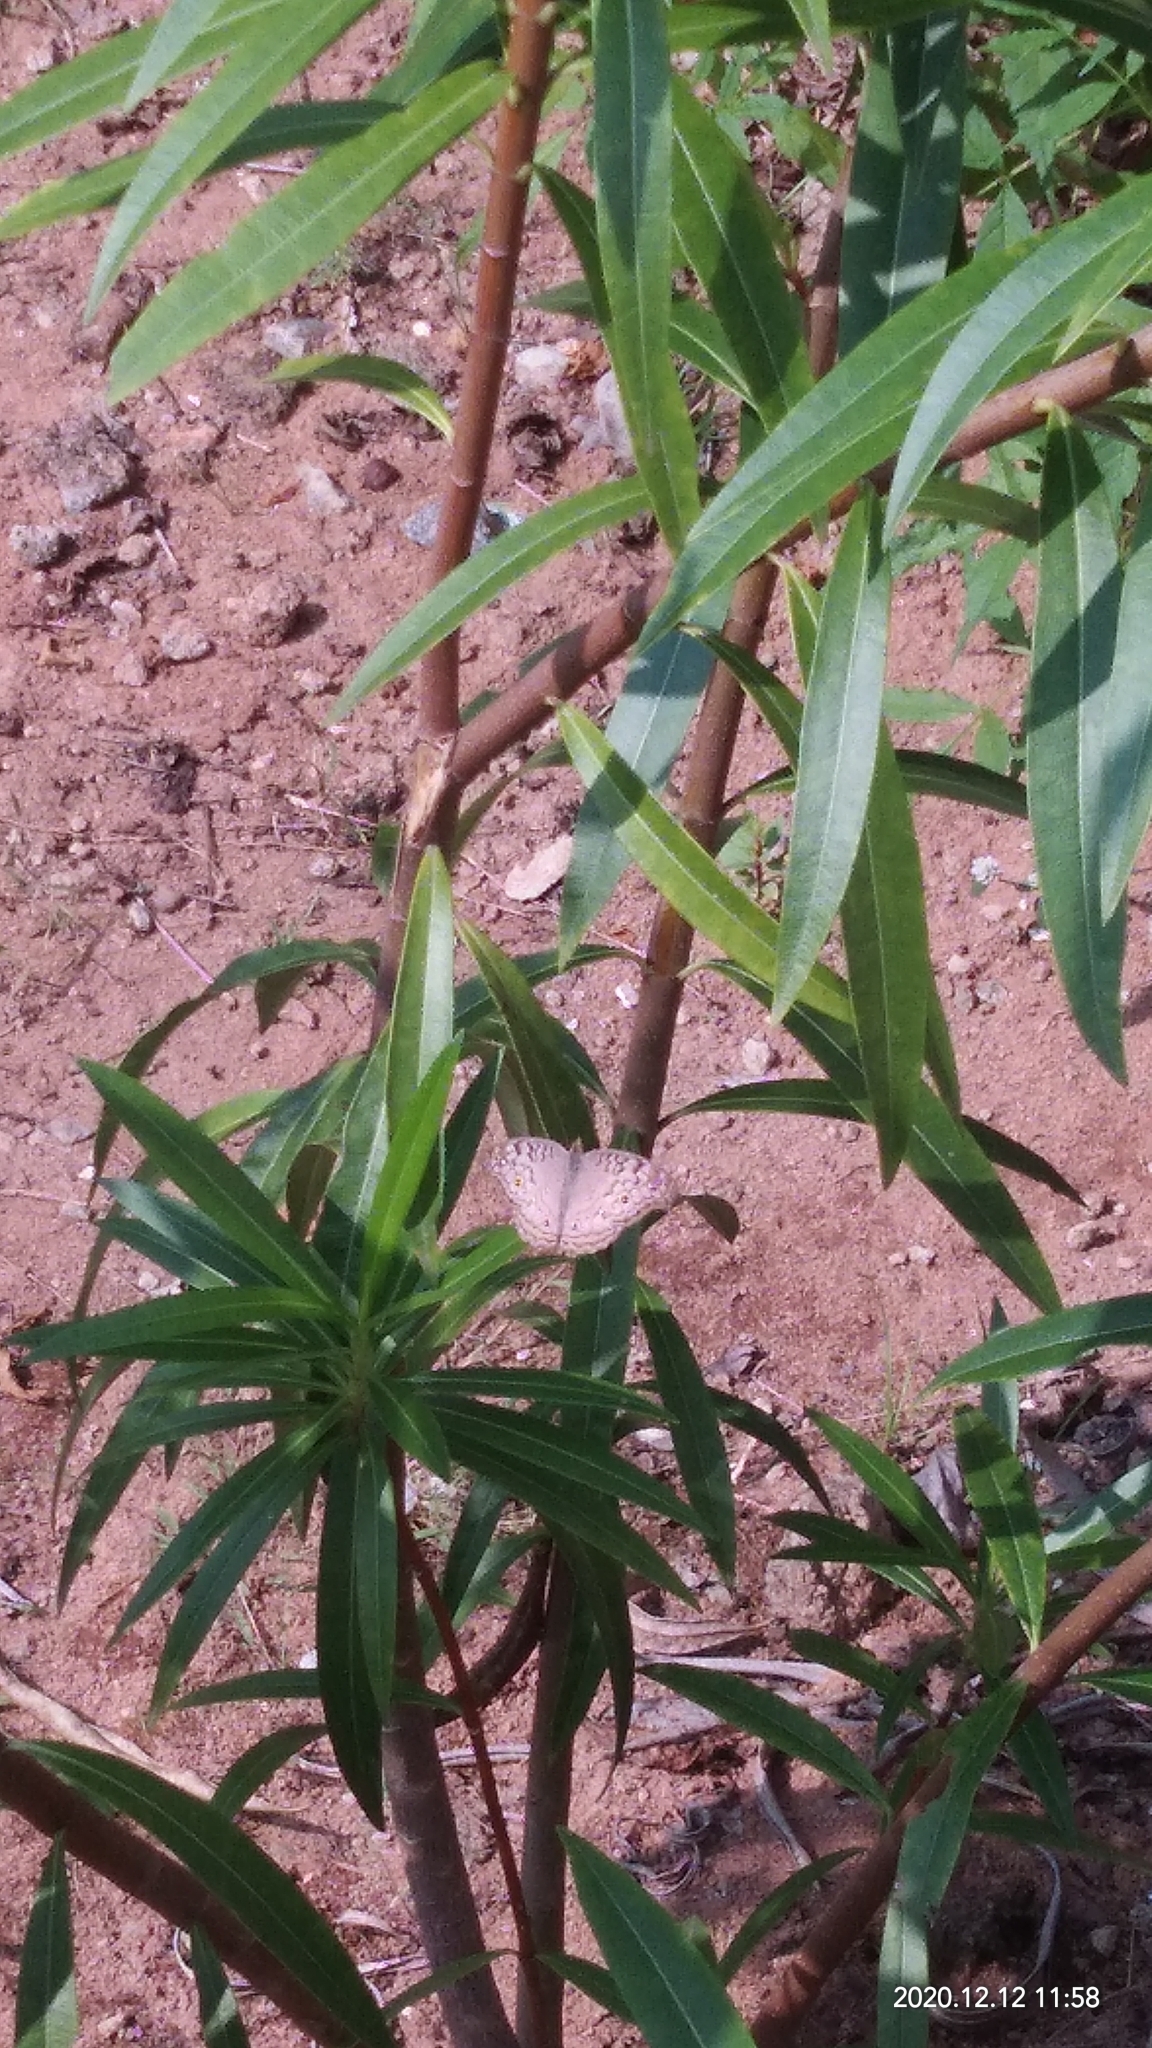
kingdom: Animalia
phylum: Arthropoda
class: Insecta
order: Lepidoptera
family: Nymphalidae
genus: Junonia
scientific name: Junonia atlites
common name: Grey pansy
